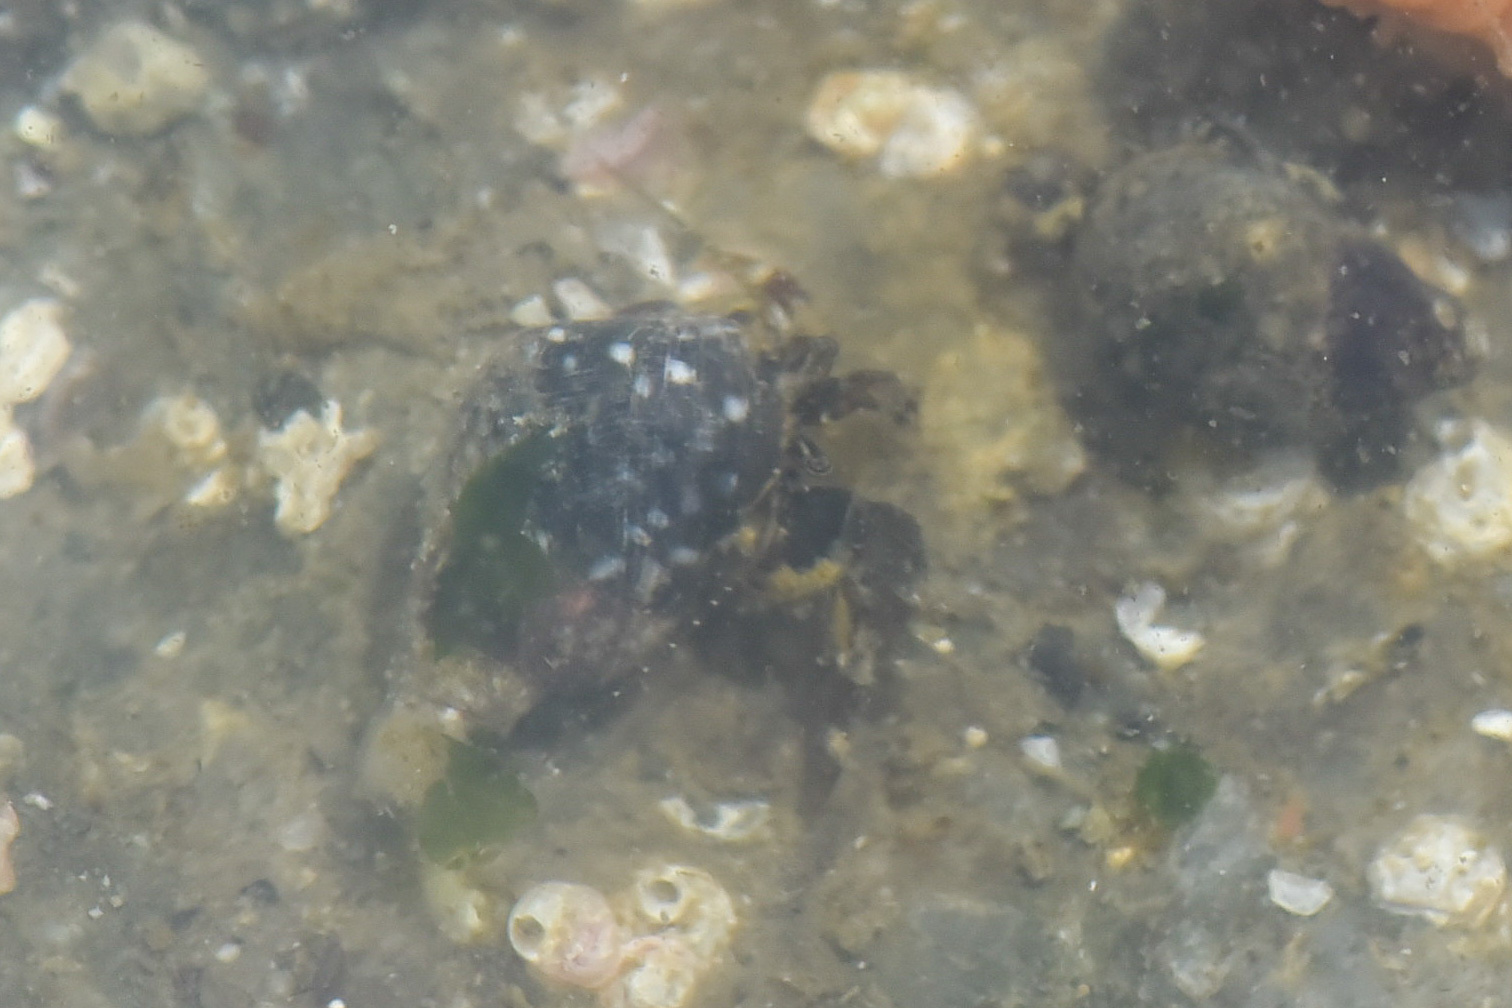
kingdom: Animalia
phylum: Arthropoda
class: Malacostraca
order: Decapoda
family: Paguridae
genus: Pagurus
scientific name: Pagurus hirsutiusculus
